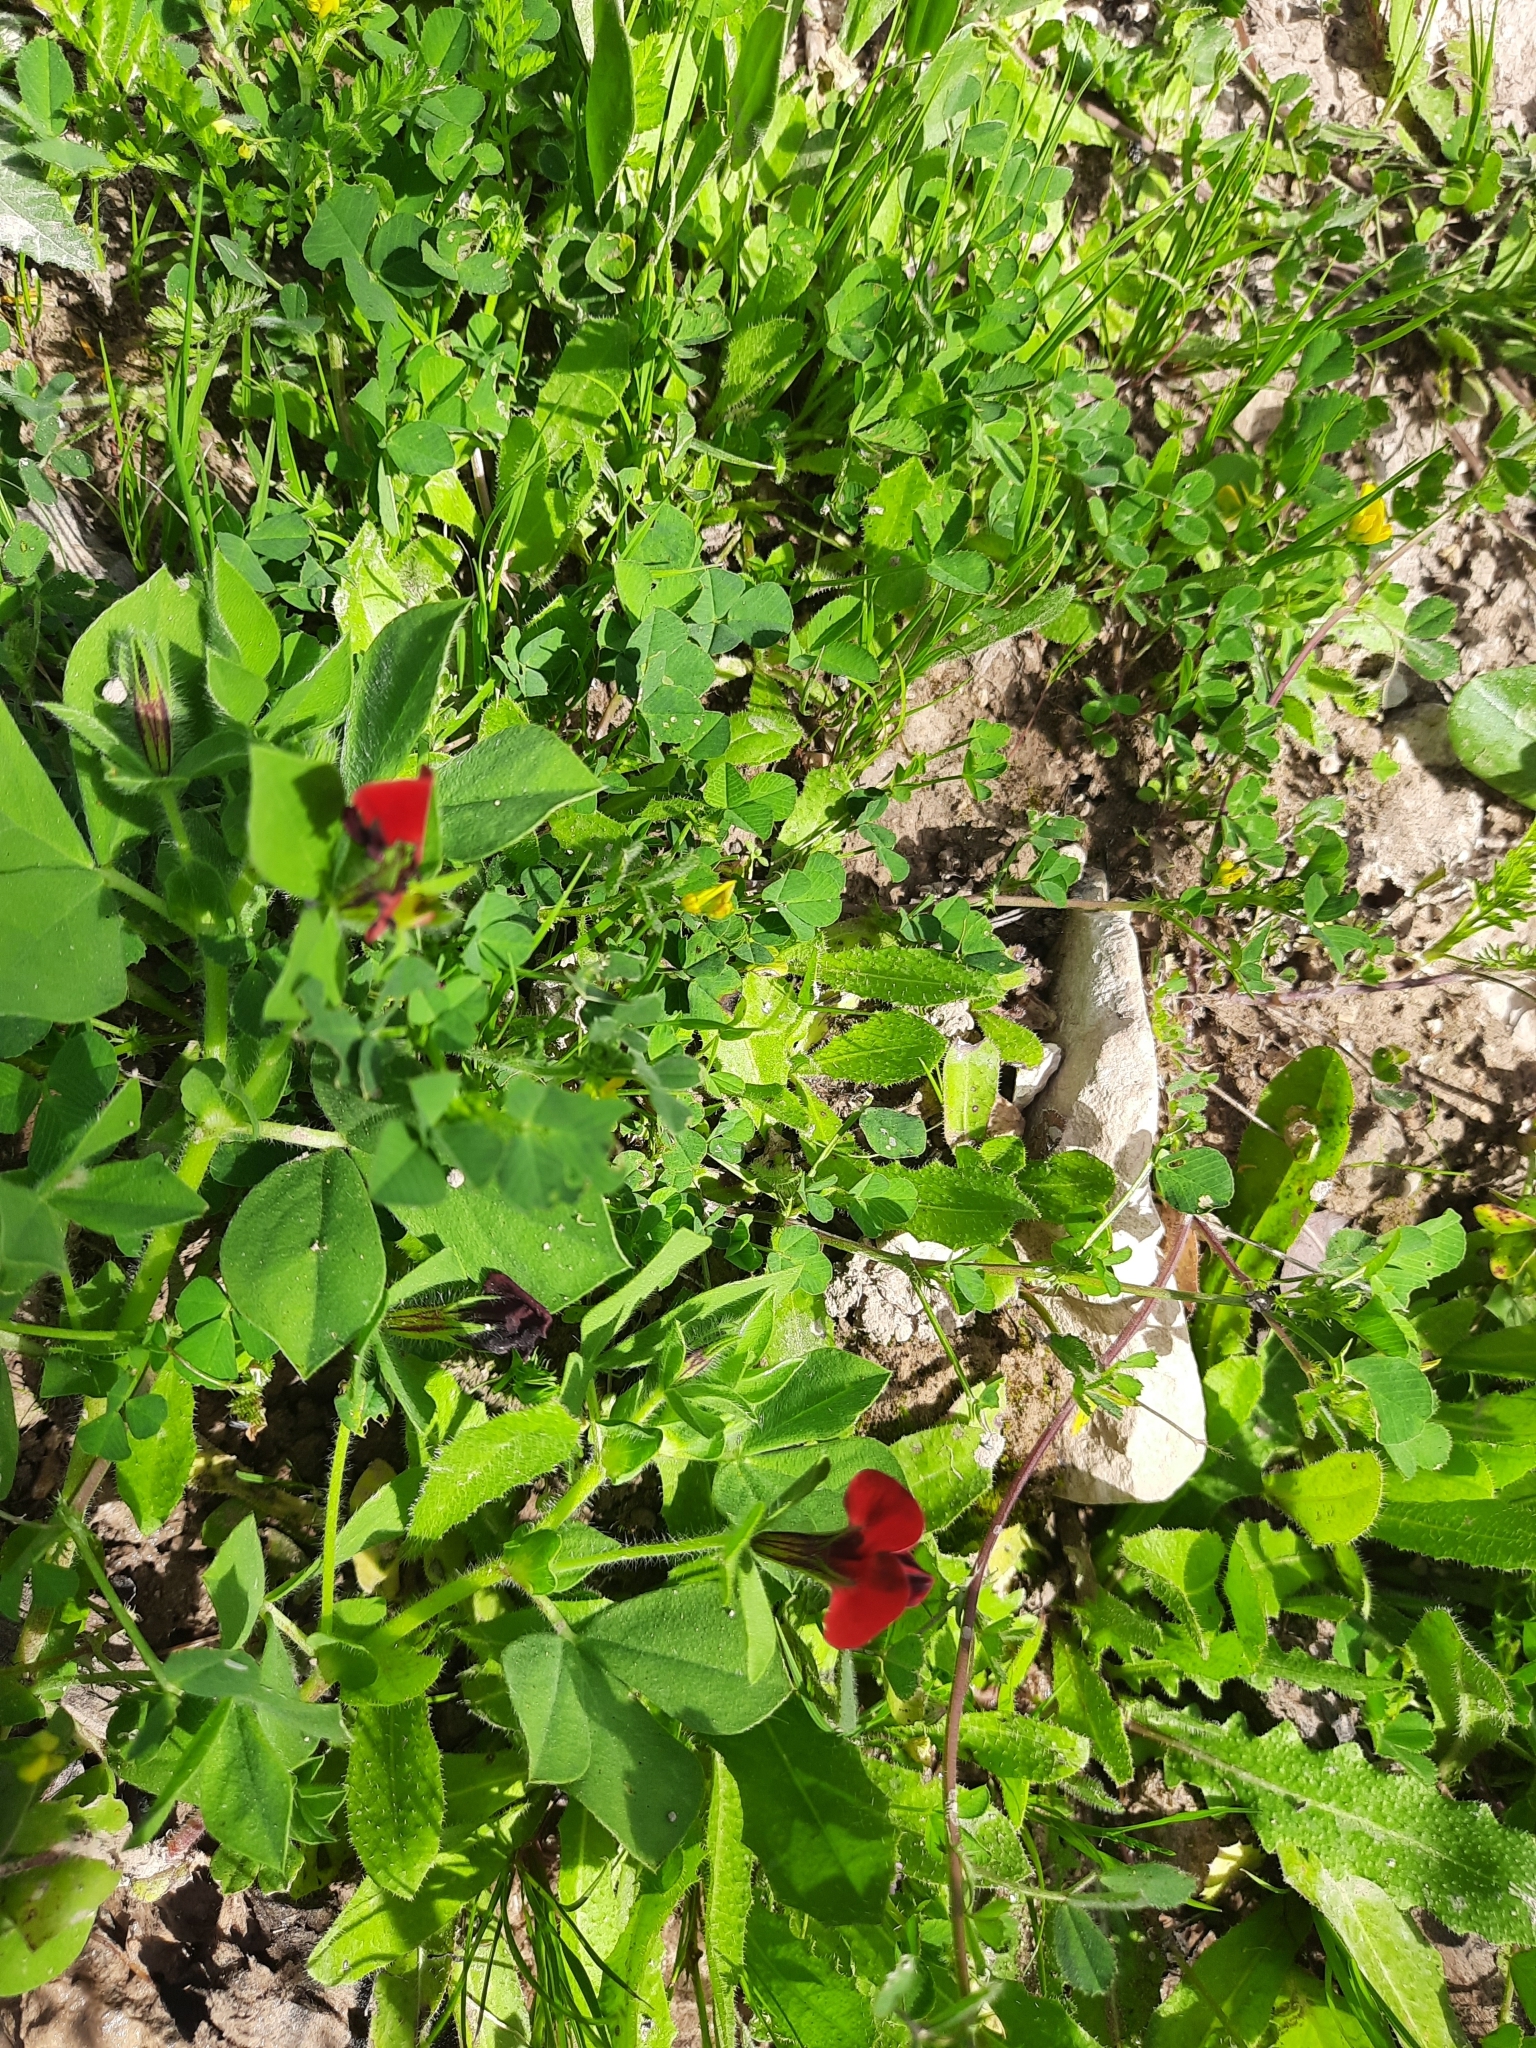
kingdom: Plantae
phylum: Tracheophyta
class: Magnoliopsida
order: Fabales
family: Fabaceae
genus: Lotus
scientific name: Lotus tetragonolobus
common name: Asparagus-pea
